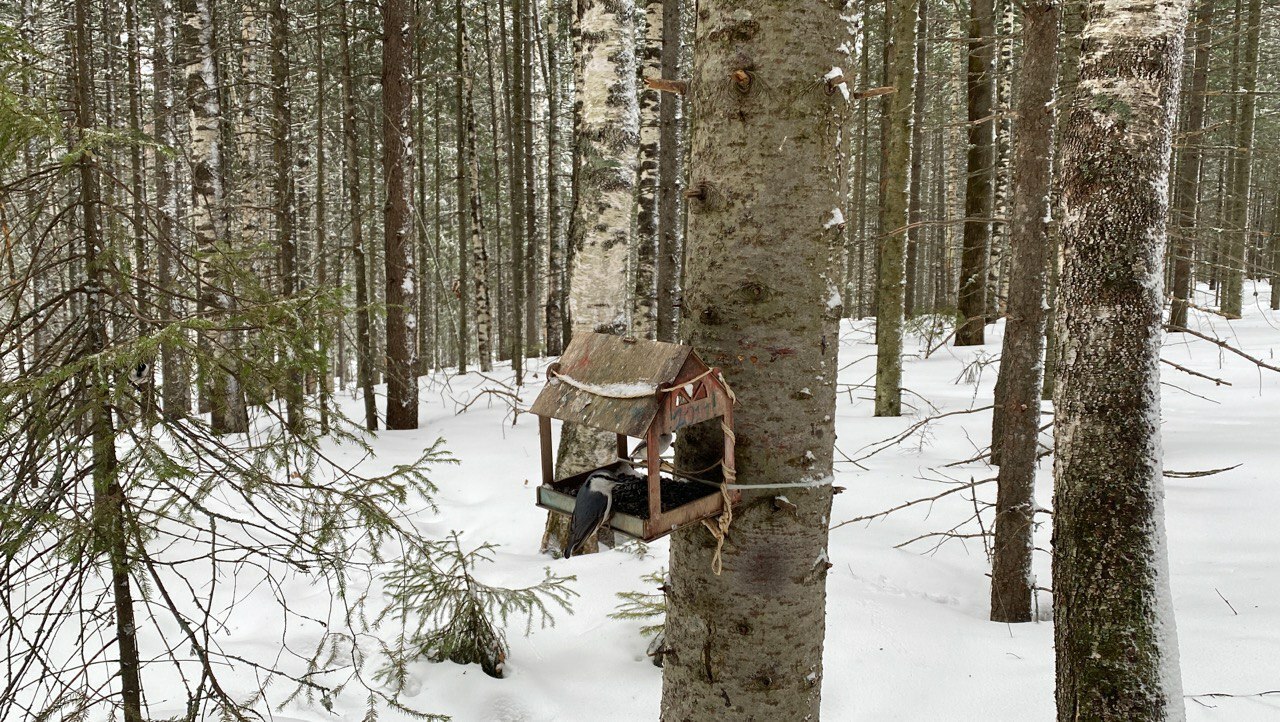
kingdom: Animalia
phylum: Chordata
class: Aves
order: Passeriformes
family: Sittidae
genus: Sitta
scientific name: Sitta europaea
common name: Eurasian nuthatch
